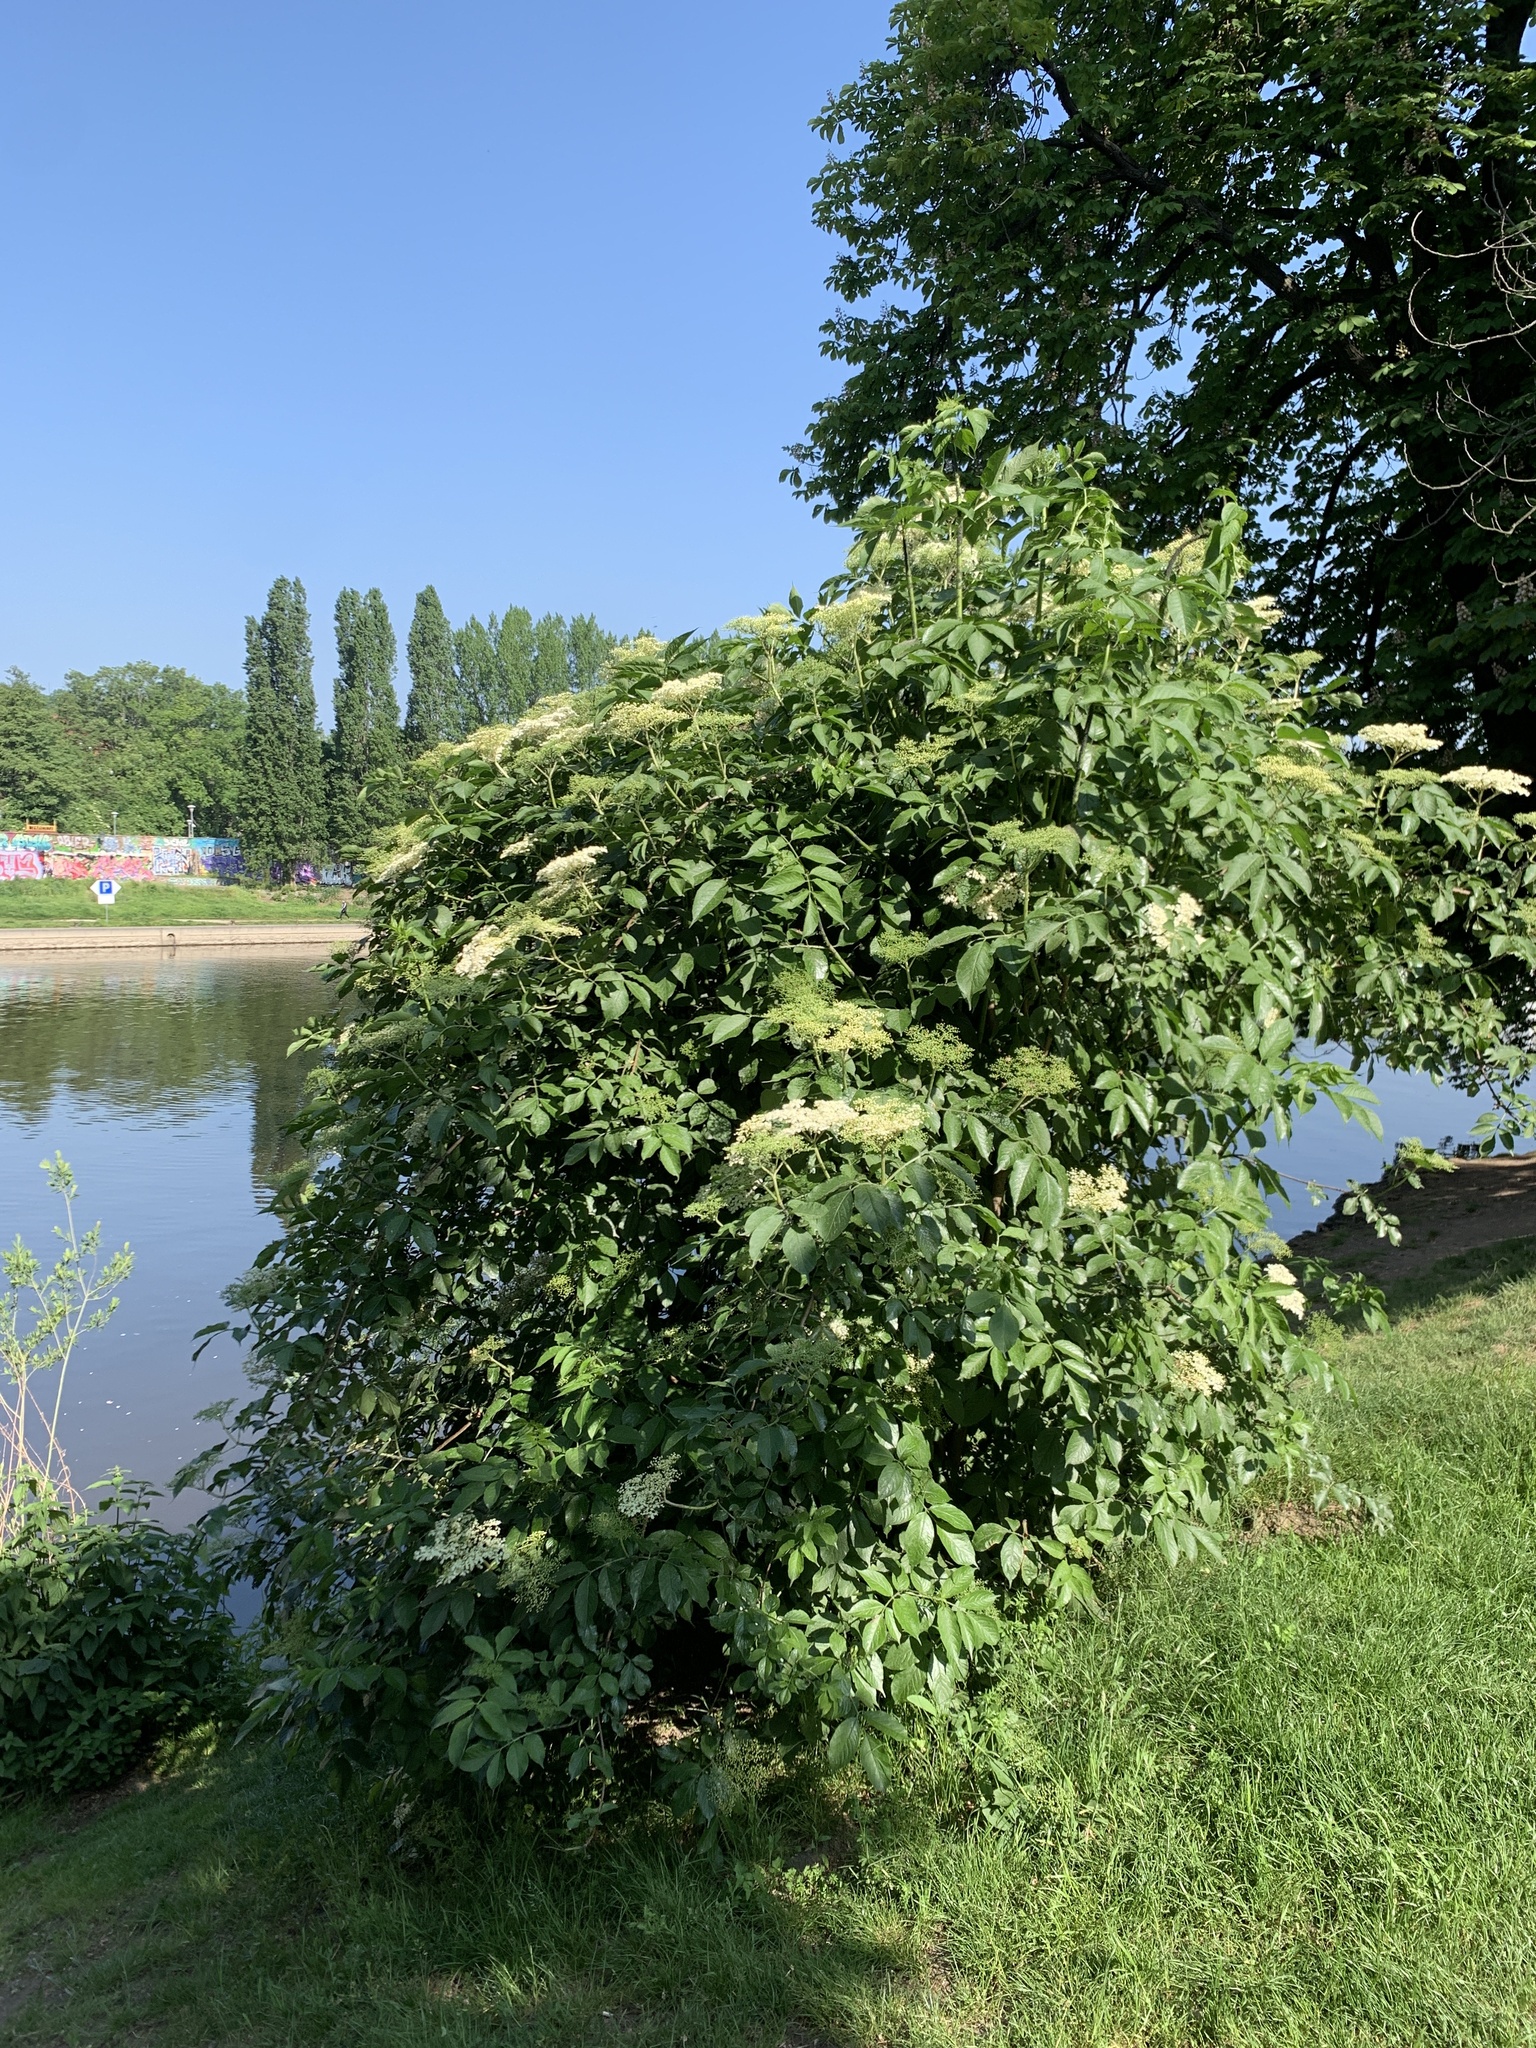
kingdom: Plantae
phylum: Tracheophyta
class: Magnoliopsida
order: Dipsacales
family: Viburnaceae
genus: Sambucus
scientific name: Sambucus nigra
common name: Elder
